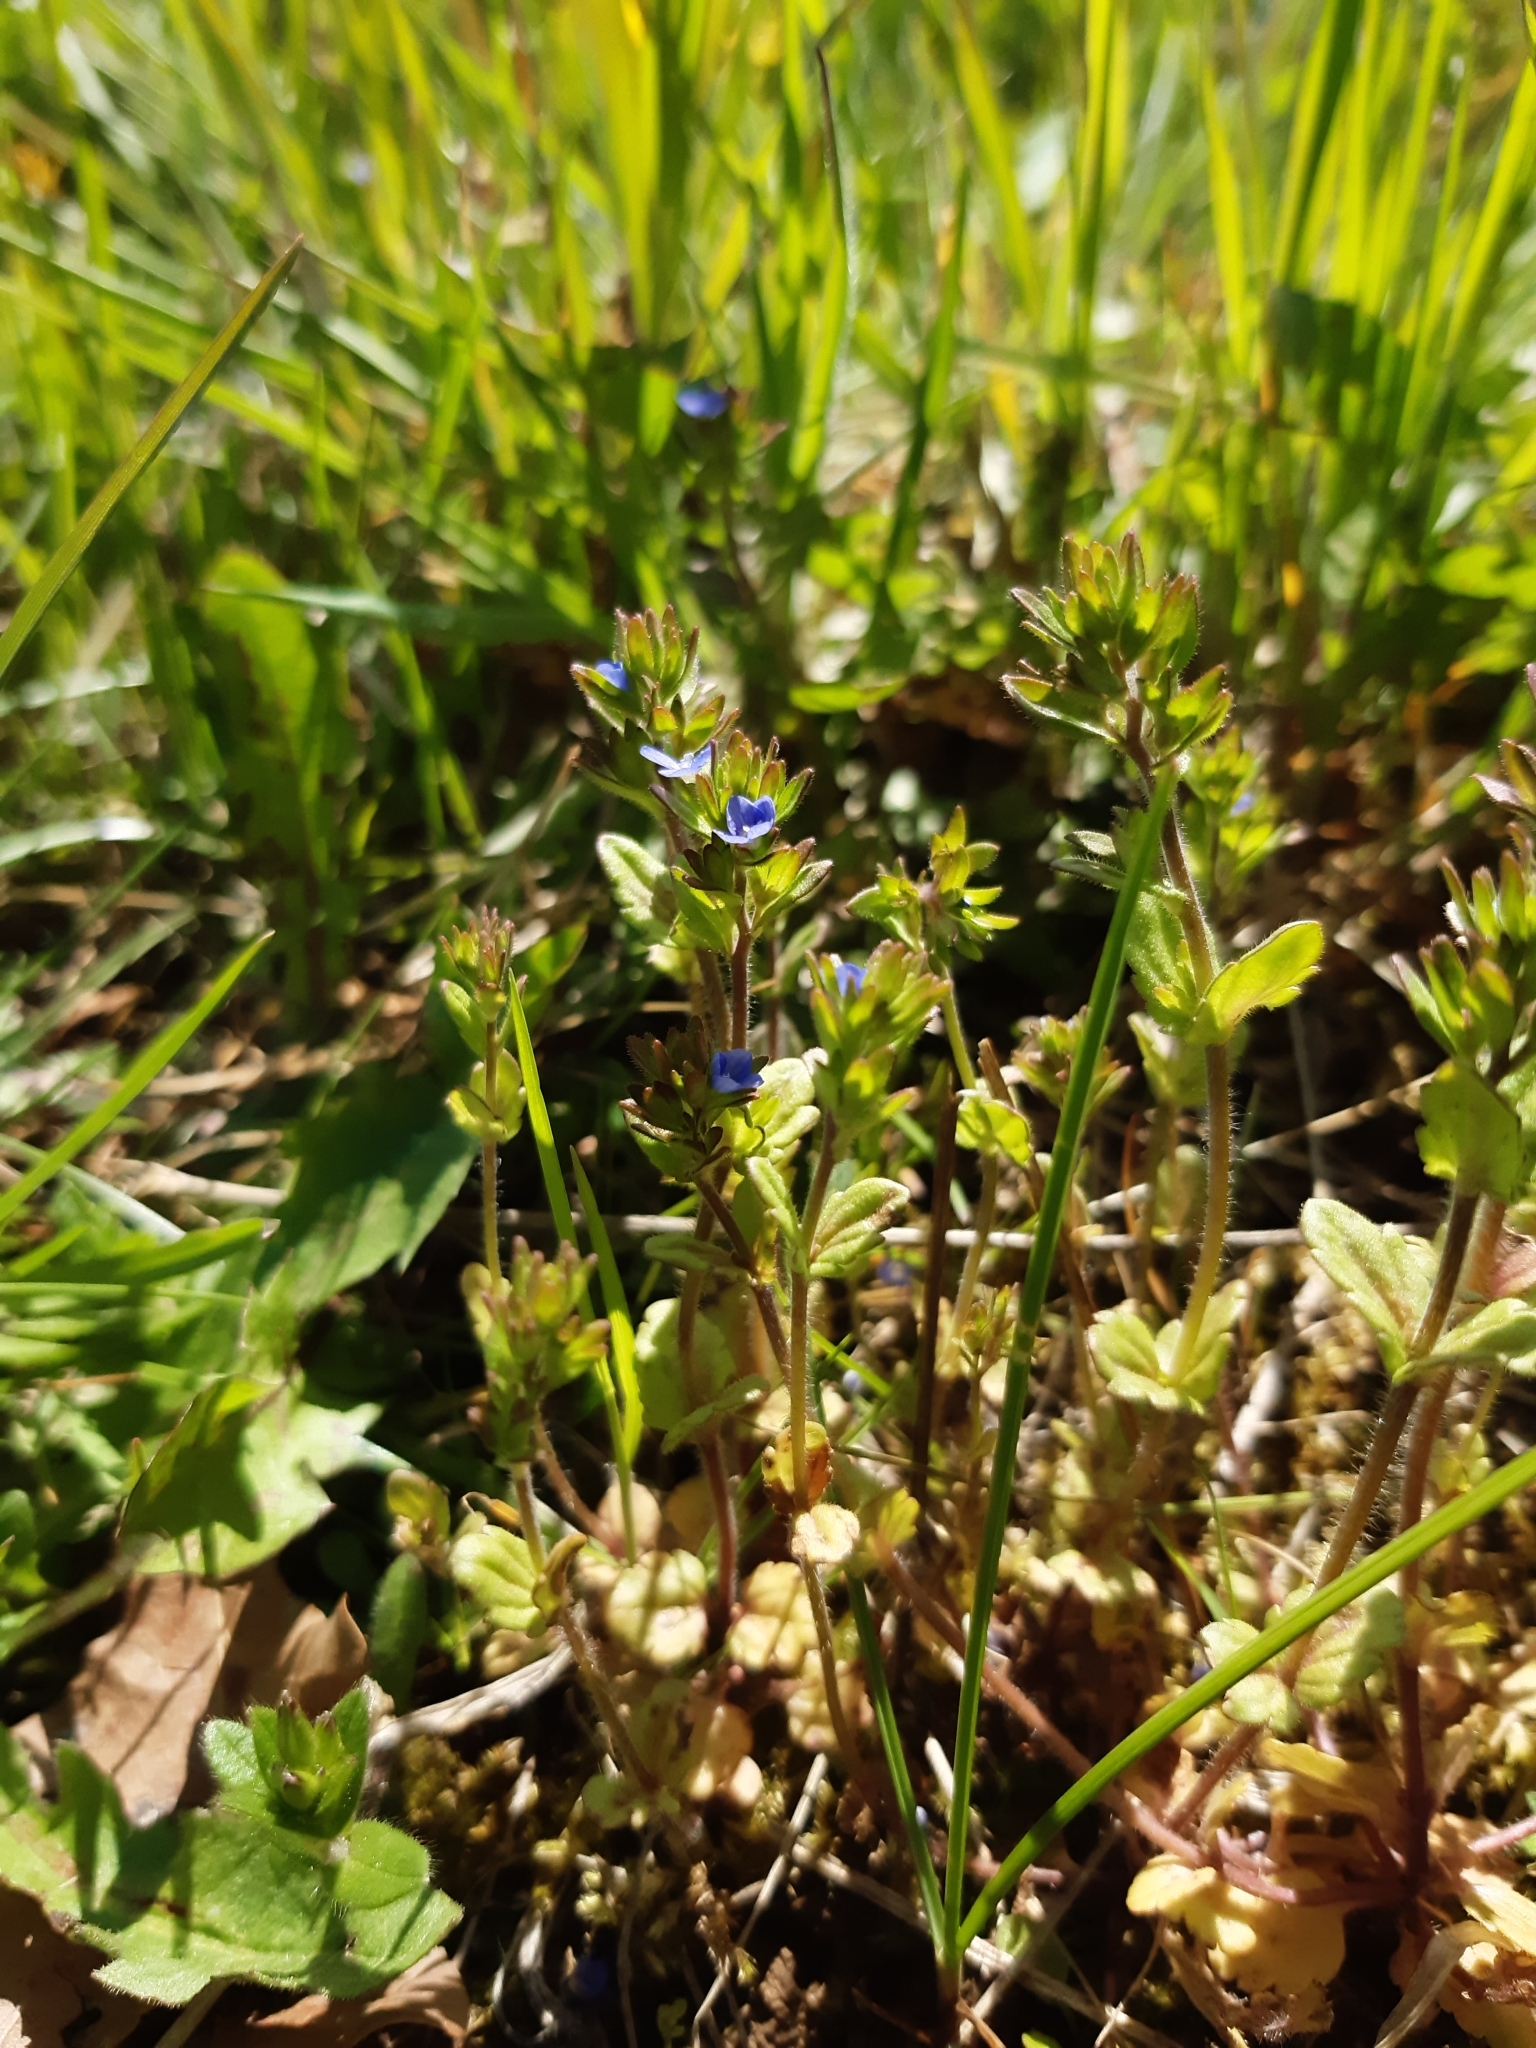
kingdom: Plantae
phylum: Tracheophyta
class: Magnoliopsida
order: Lamiales
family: Plantaginaceae
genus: Veronica
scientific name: Veronica arvensis
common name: Corn speedwell
